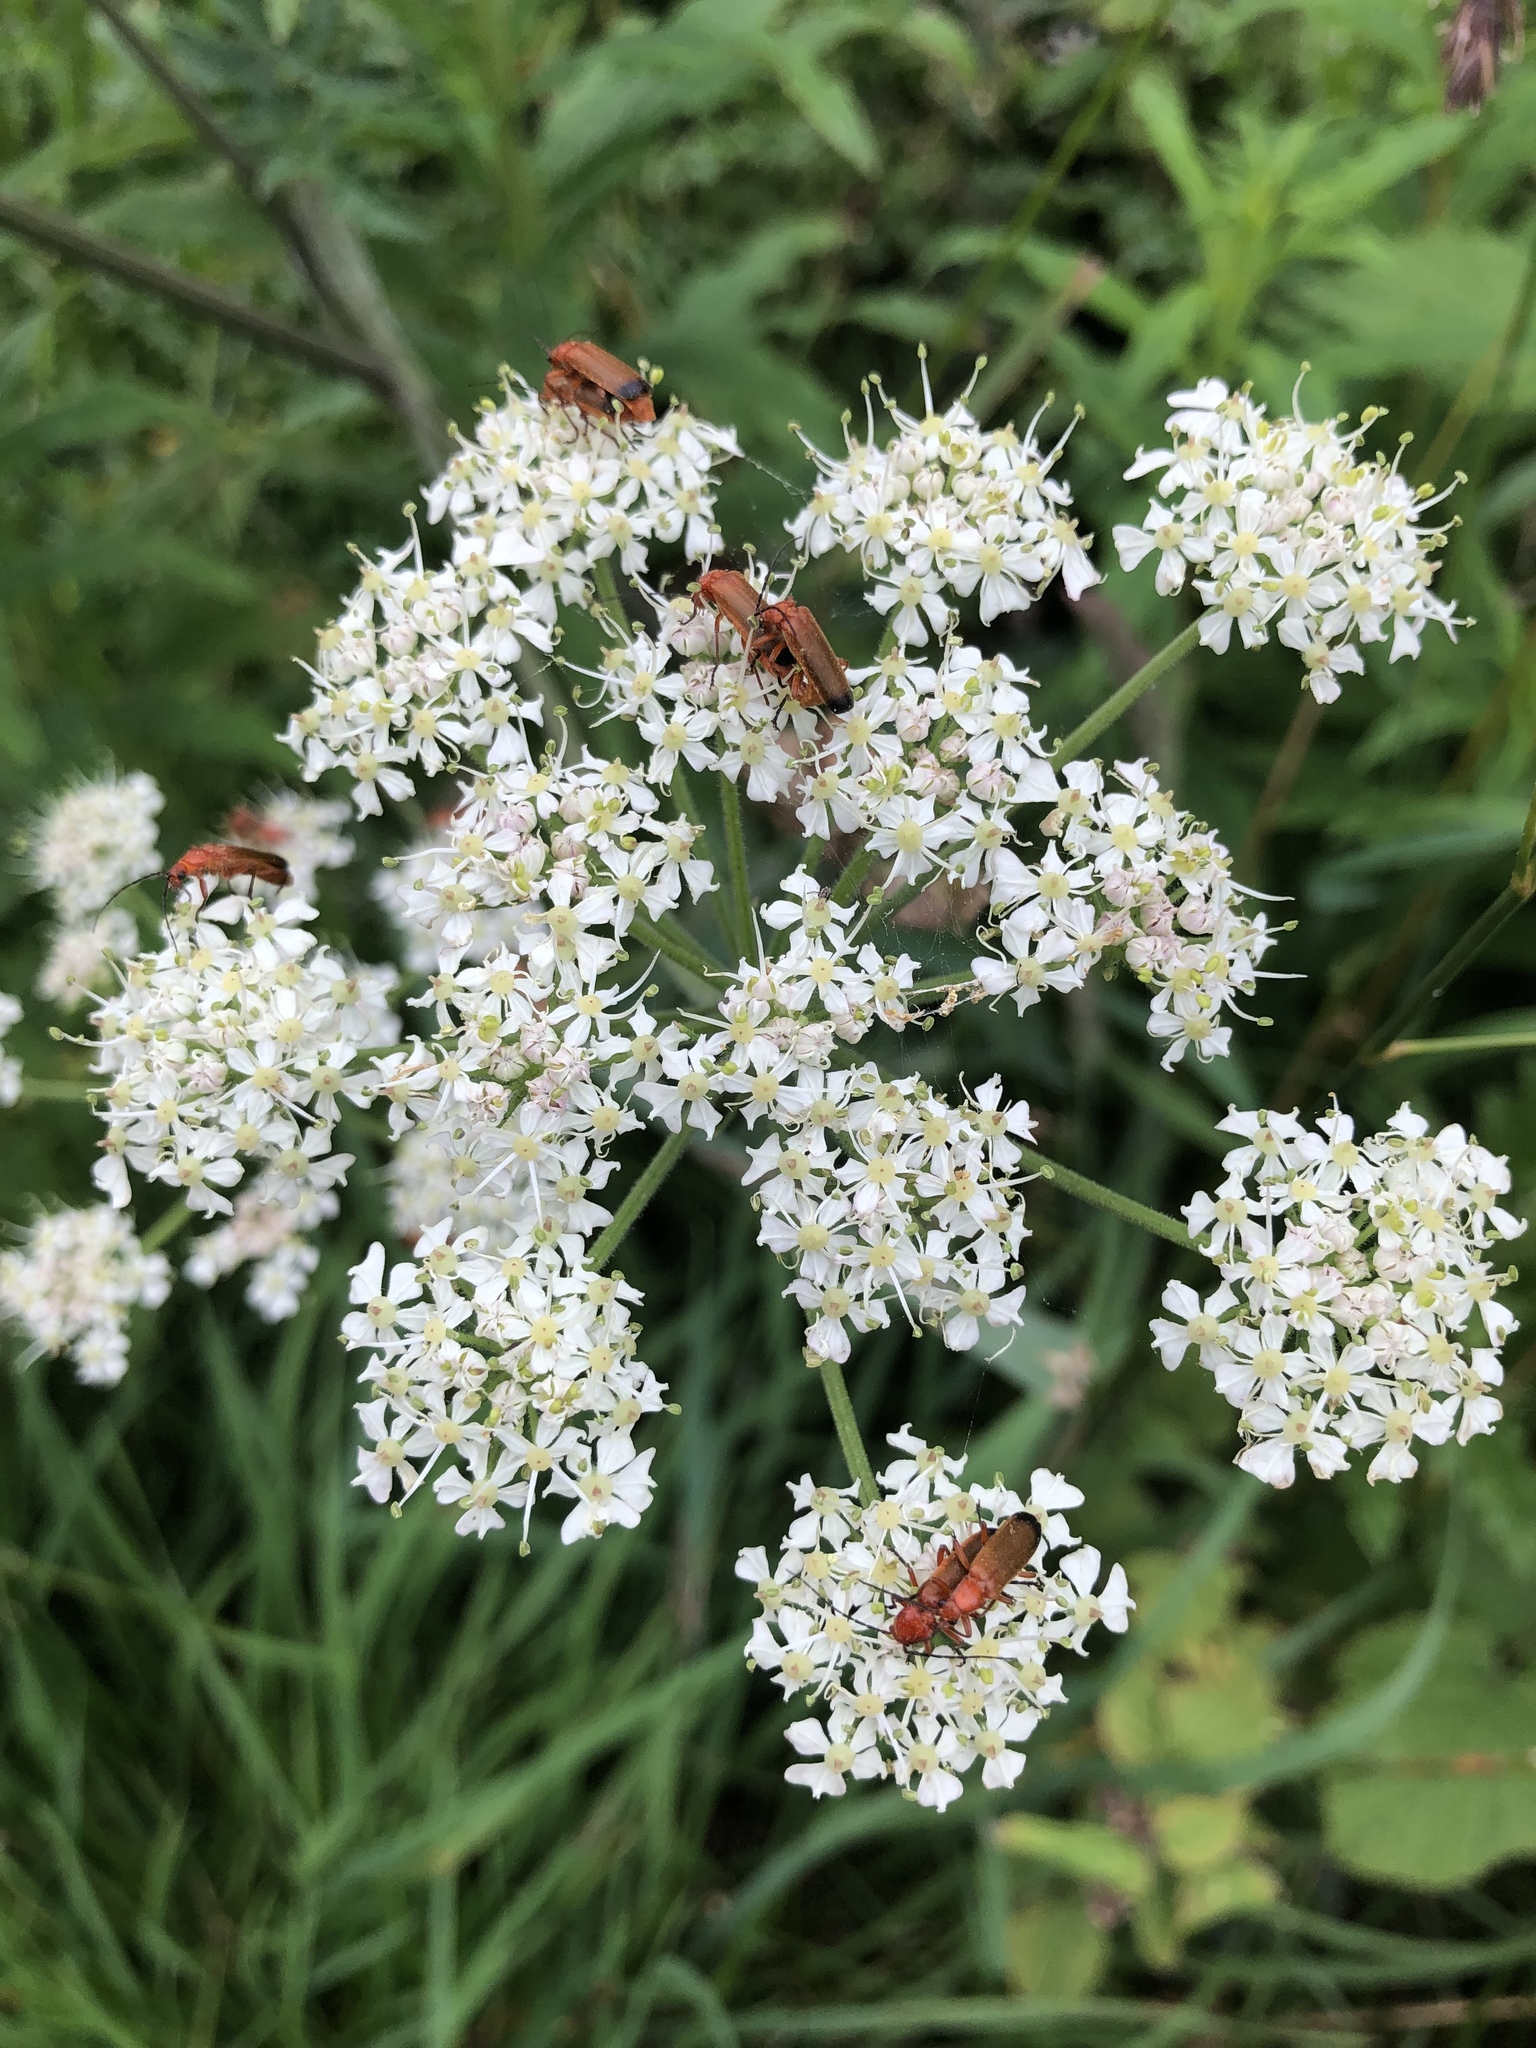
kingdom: Animalia
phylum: Arthropoda
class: Insecta
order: Coleoptera
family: Cantharidae
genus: Rhagonycha
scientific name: Rhagonycha fulva
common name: Common red soldier beetle
